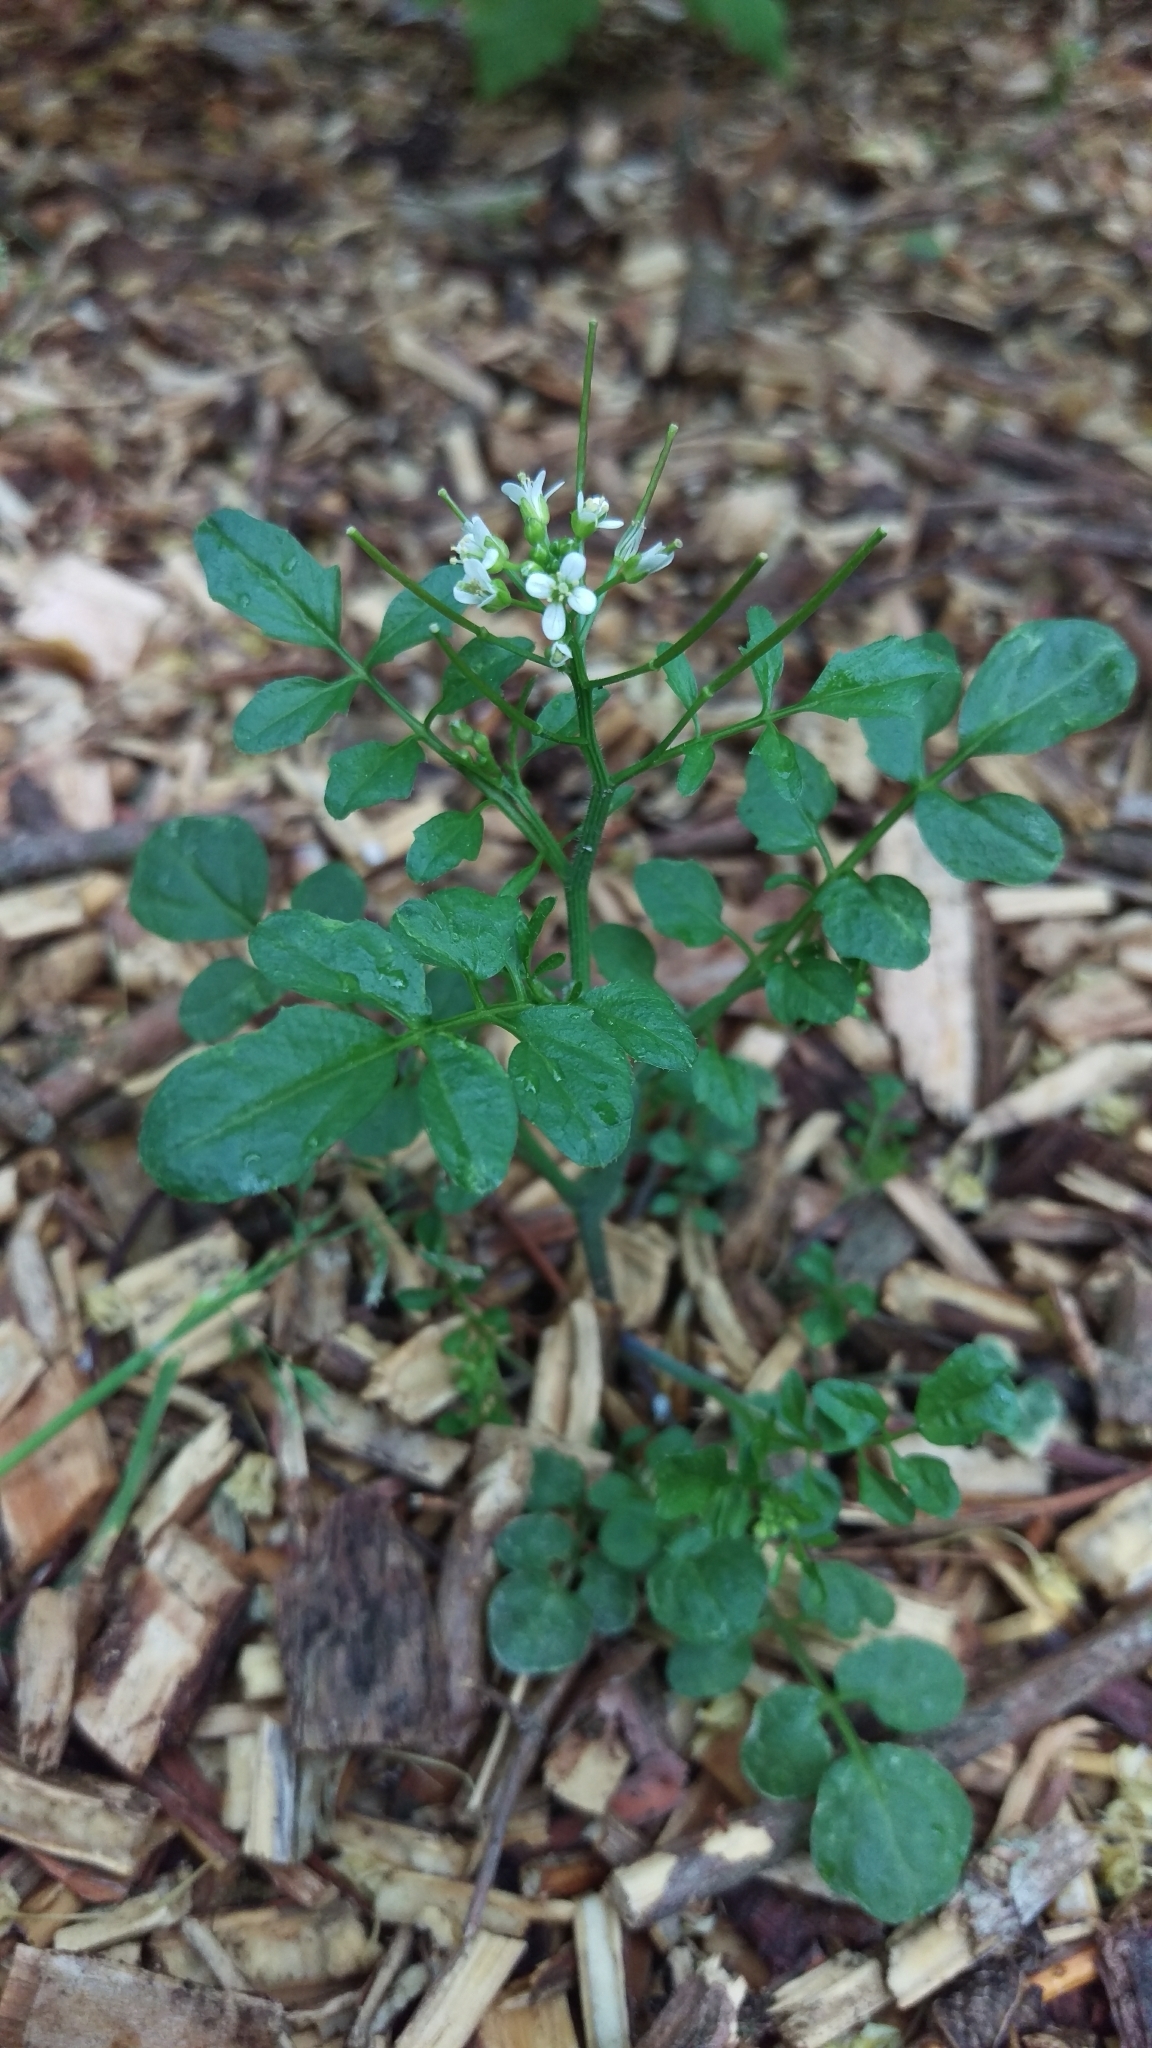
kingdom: Plantae
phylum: Tracheophyta
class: Magnoliopsida
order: Brassicales
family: Brassicaceae
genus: Cardamine
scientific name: Cardamine flexuosa
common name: Woodland bittercress
